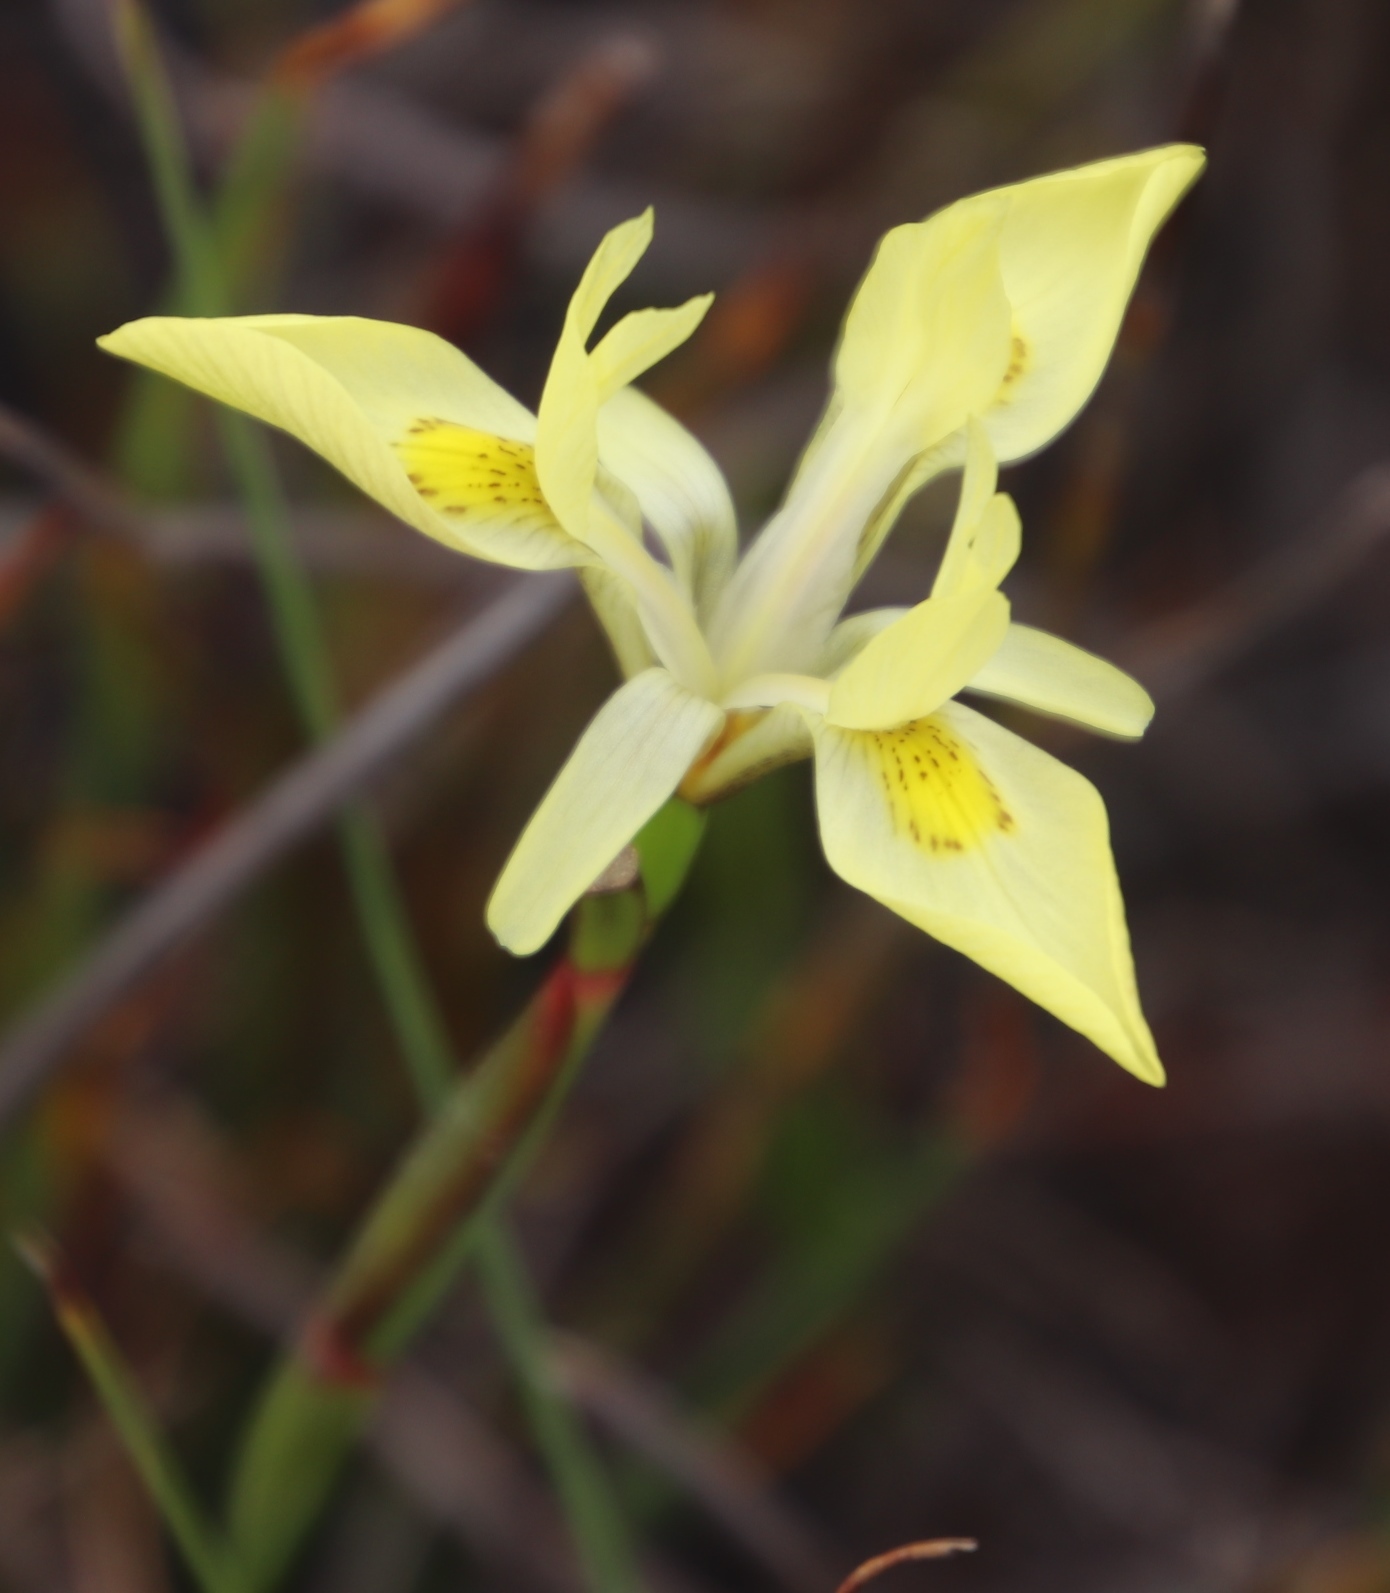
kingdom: Plantae
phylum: Tracheophyta
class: Liliopsida
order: Asparagales
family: Iridaceae
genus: Moraea
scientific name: Moraea neglecta
